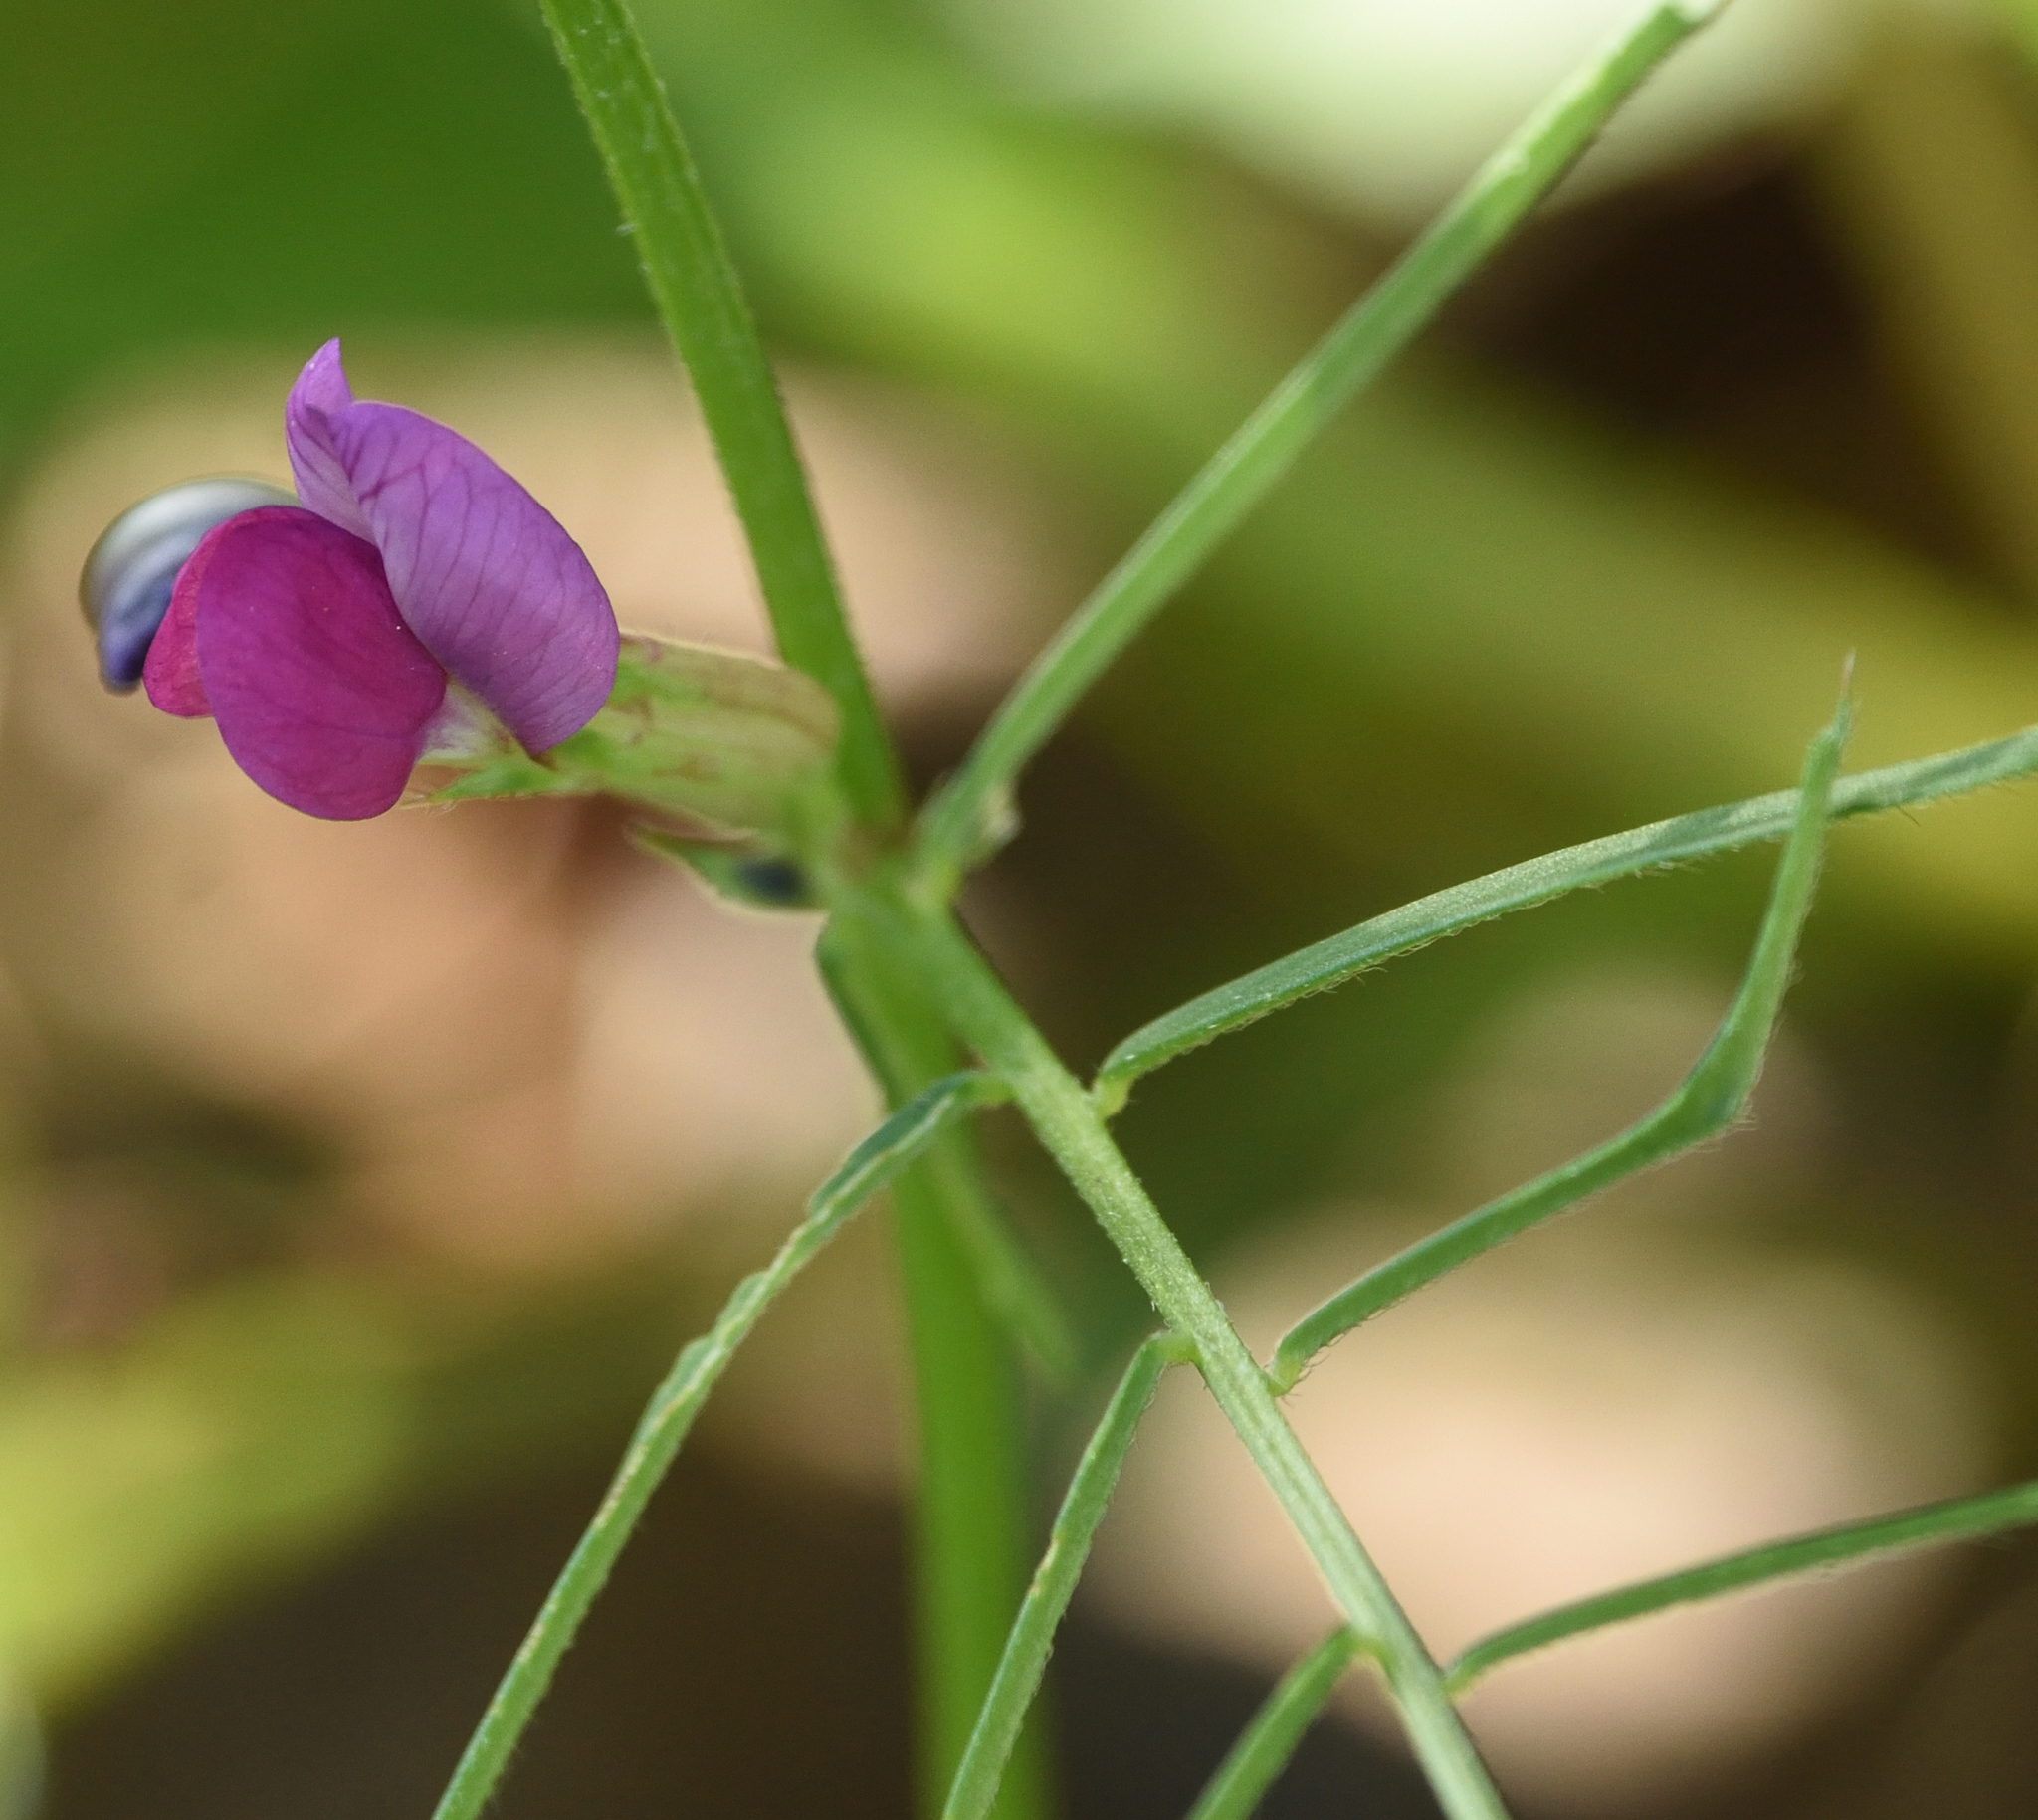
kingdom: Plantae
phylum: Tracheophyta
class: Magnoliopsida
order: Fabales
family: Fabaceae
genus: Vicia
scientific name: Vicia sativa
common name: Garden vetch
